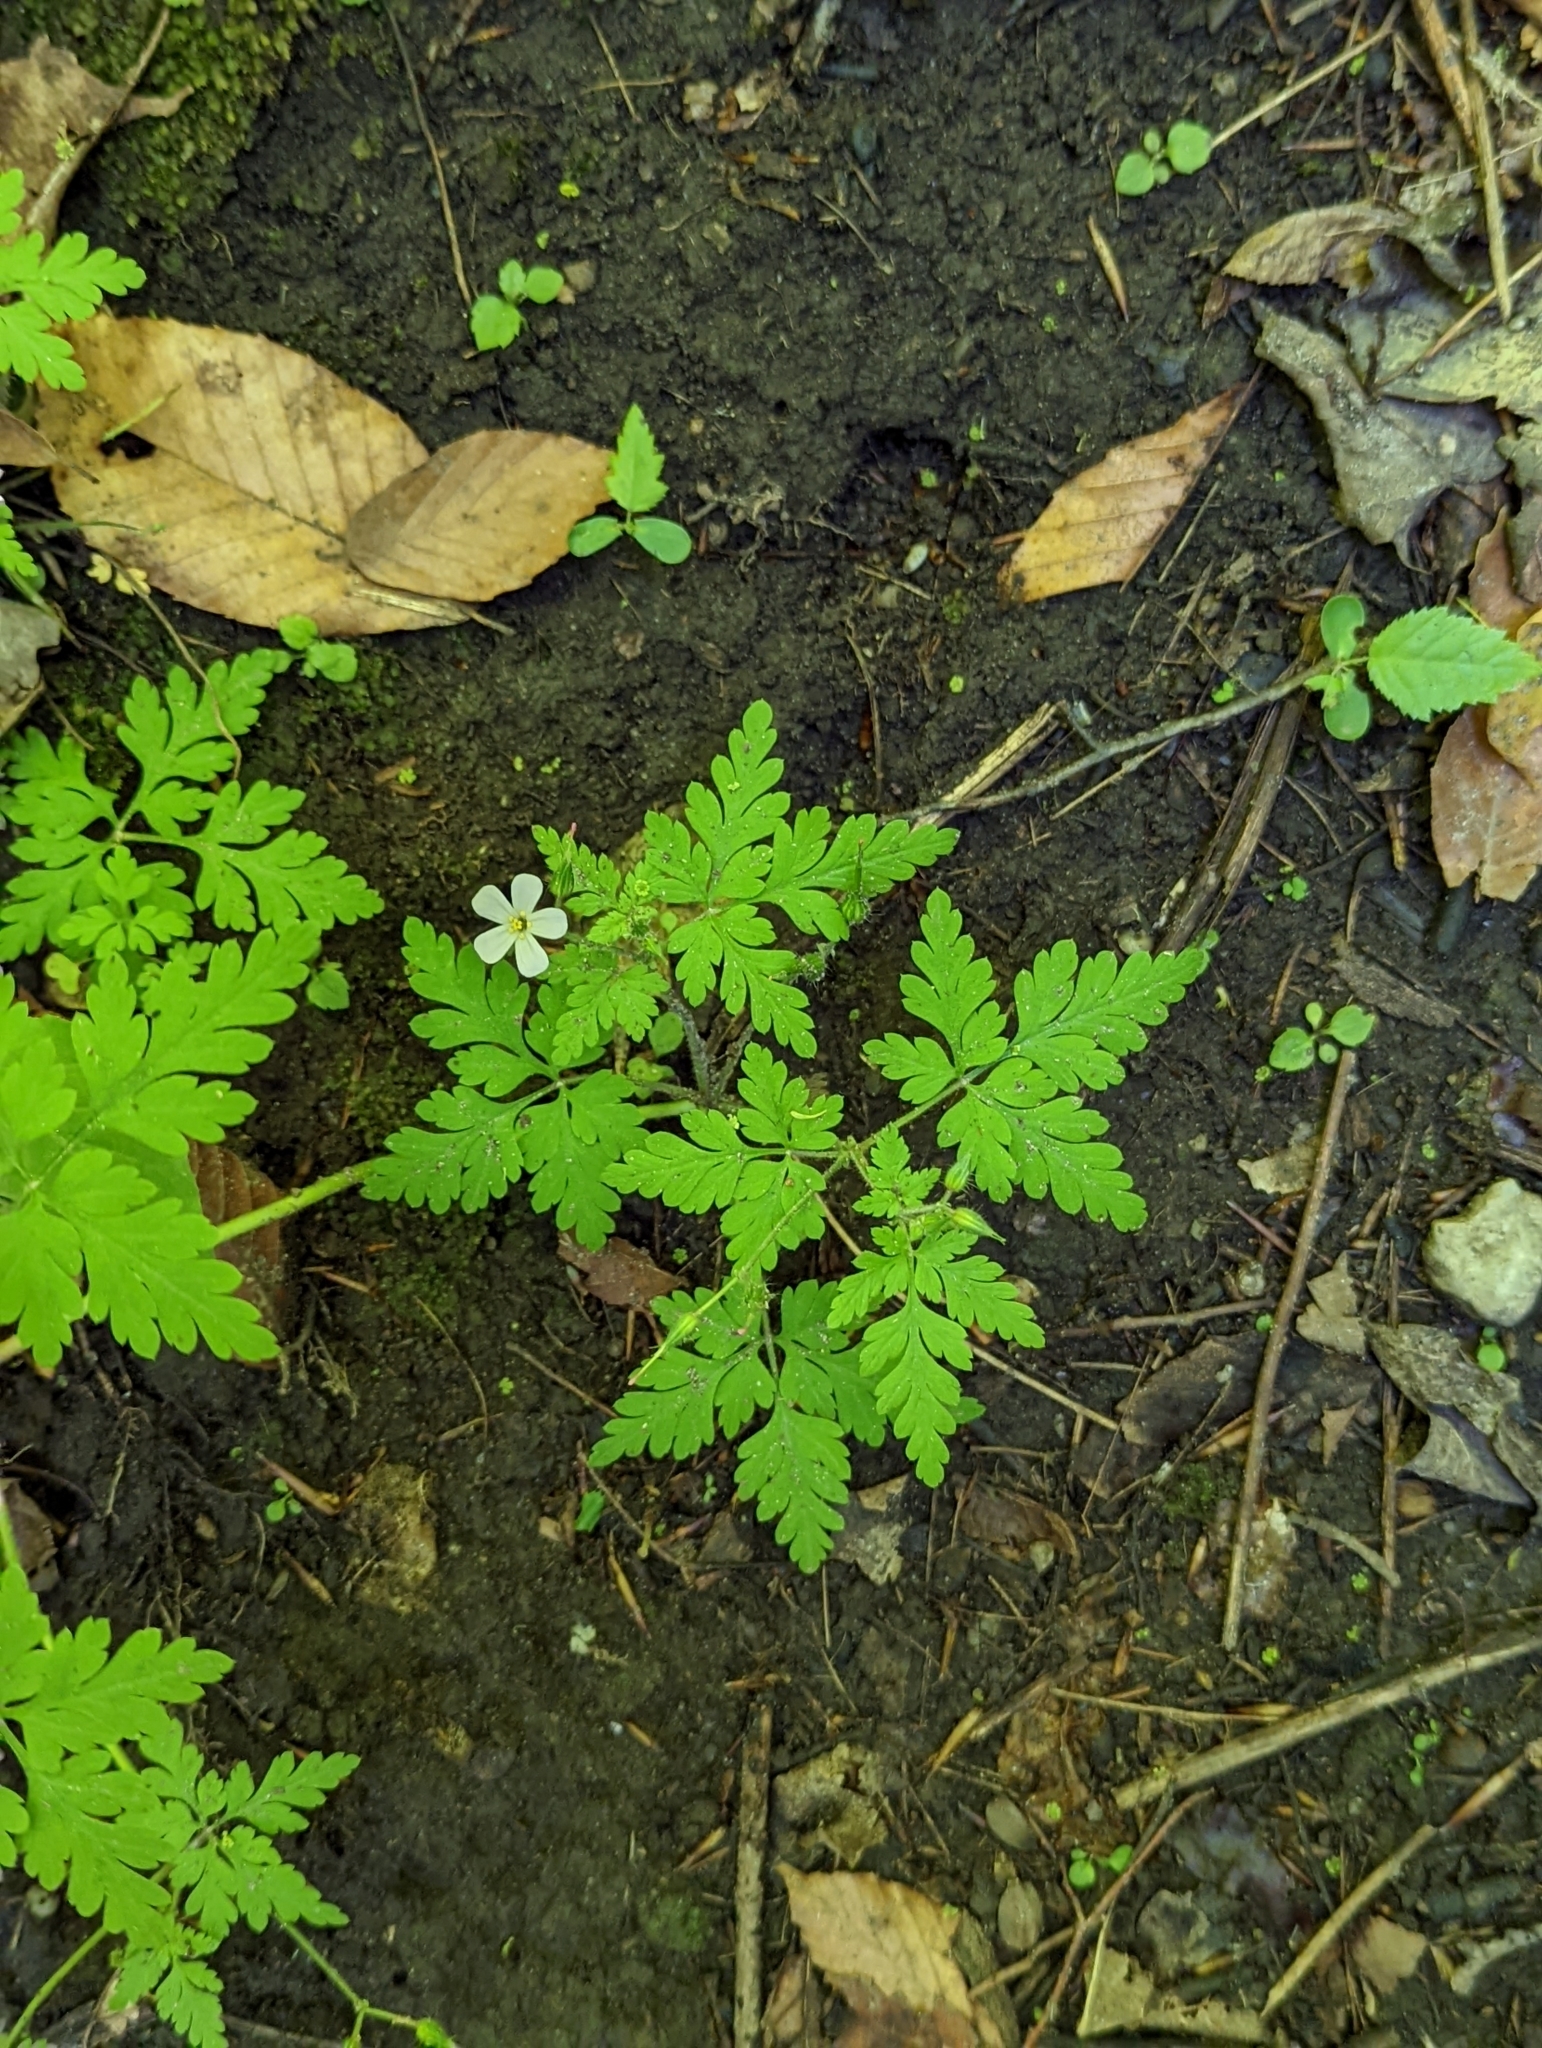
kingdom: Plantae
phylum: Tracheophyta
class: Magnoliopsida
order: Geraniales
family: Geraniaceae
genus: Geranium
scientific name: Geranium robertianum
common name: Herb-robert
